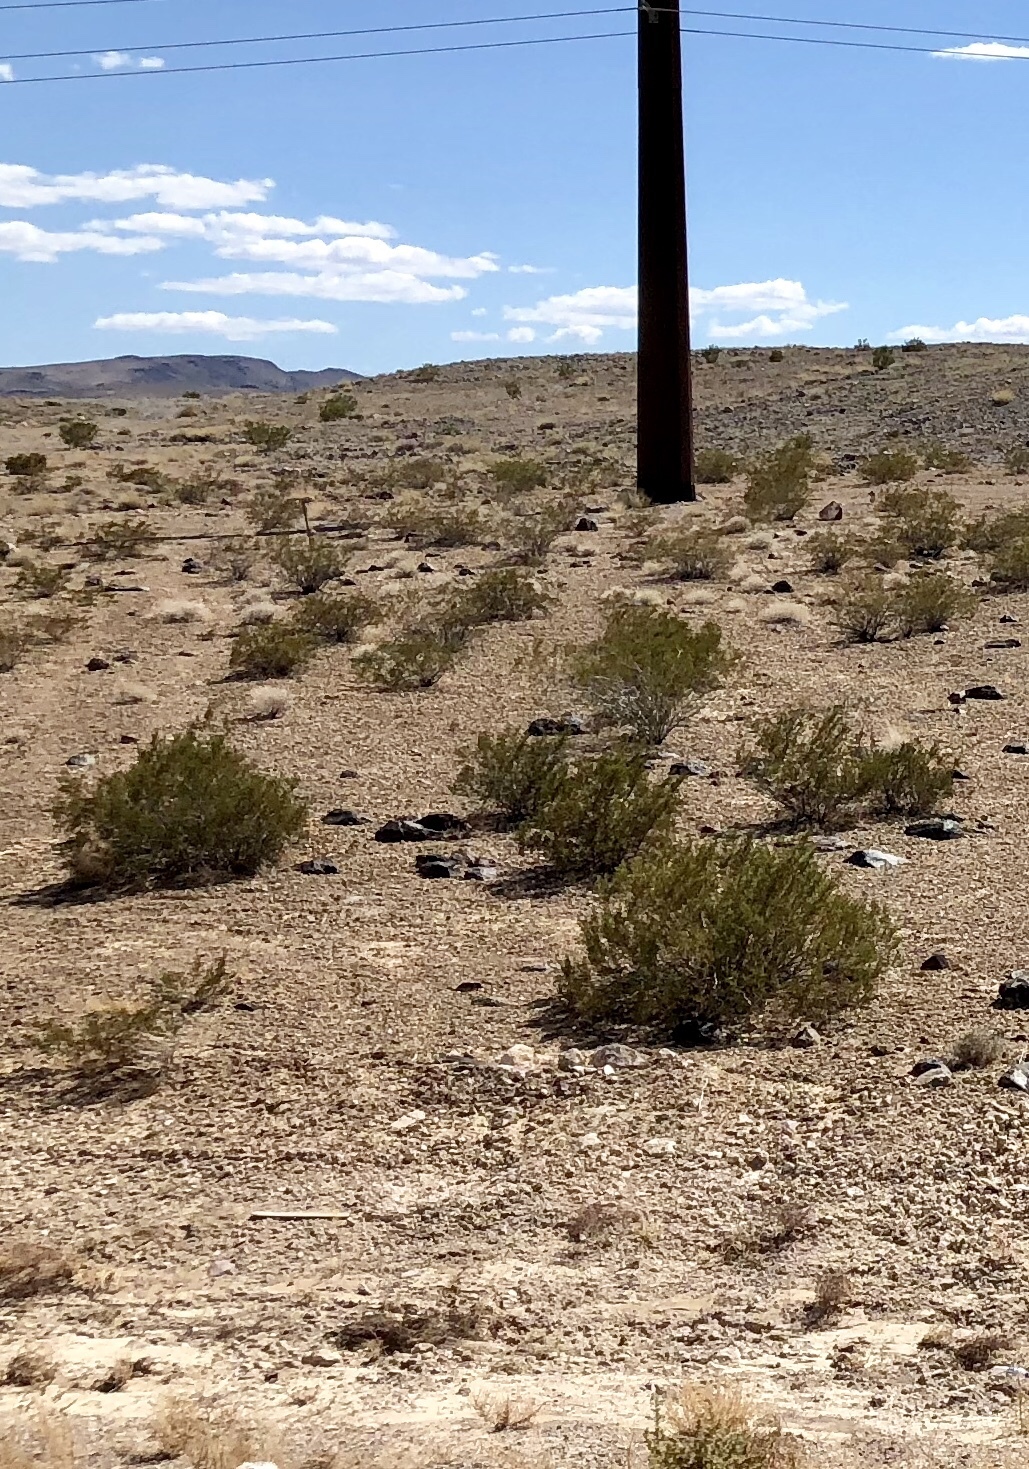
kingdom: Plantae
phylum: Tracheophyta
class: Magnoliopsida
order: Zygophyllales
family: Zygophyllaceae
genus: Larrea
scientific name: Larrea tridentata
